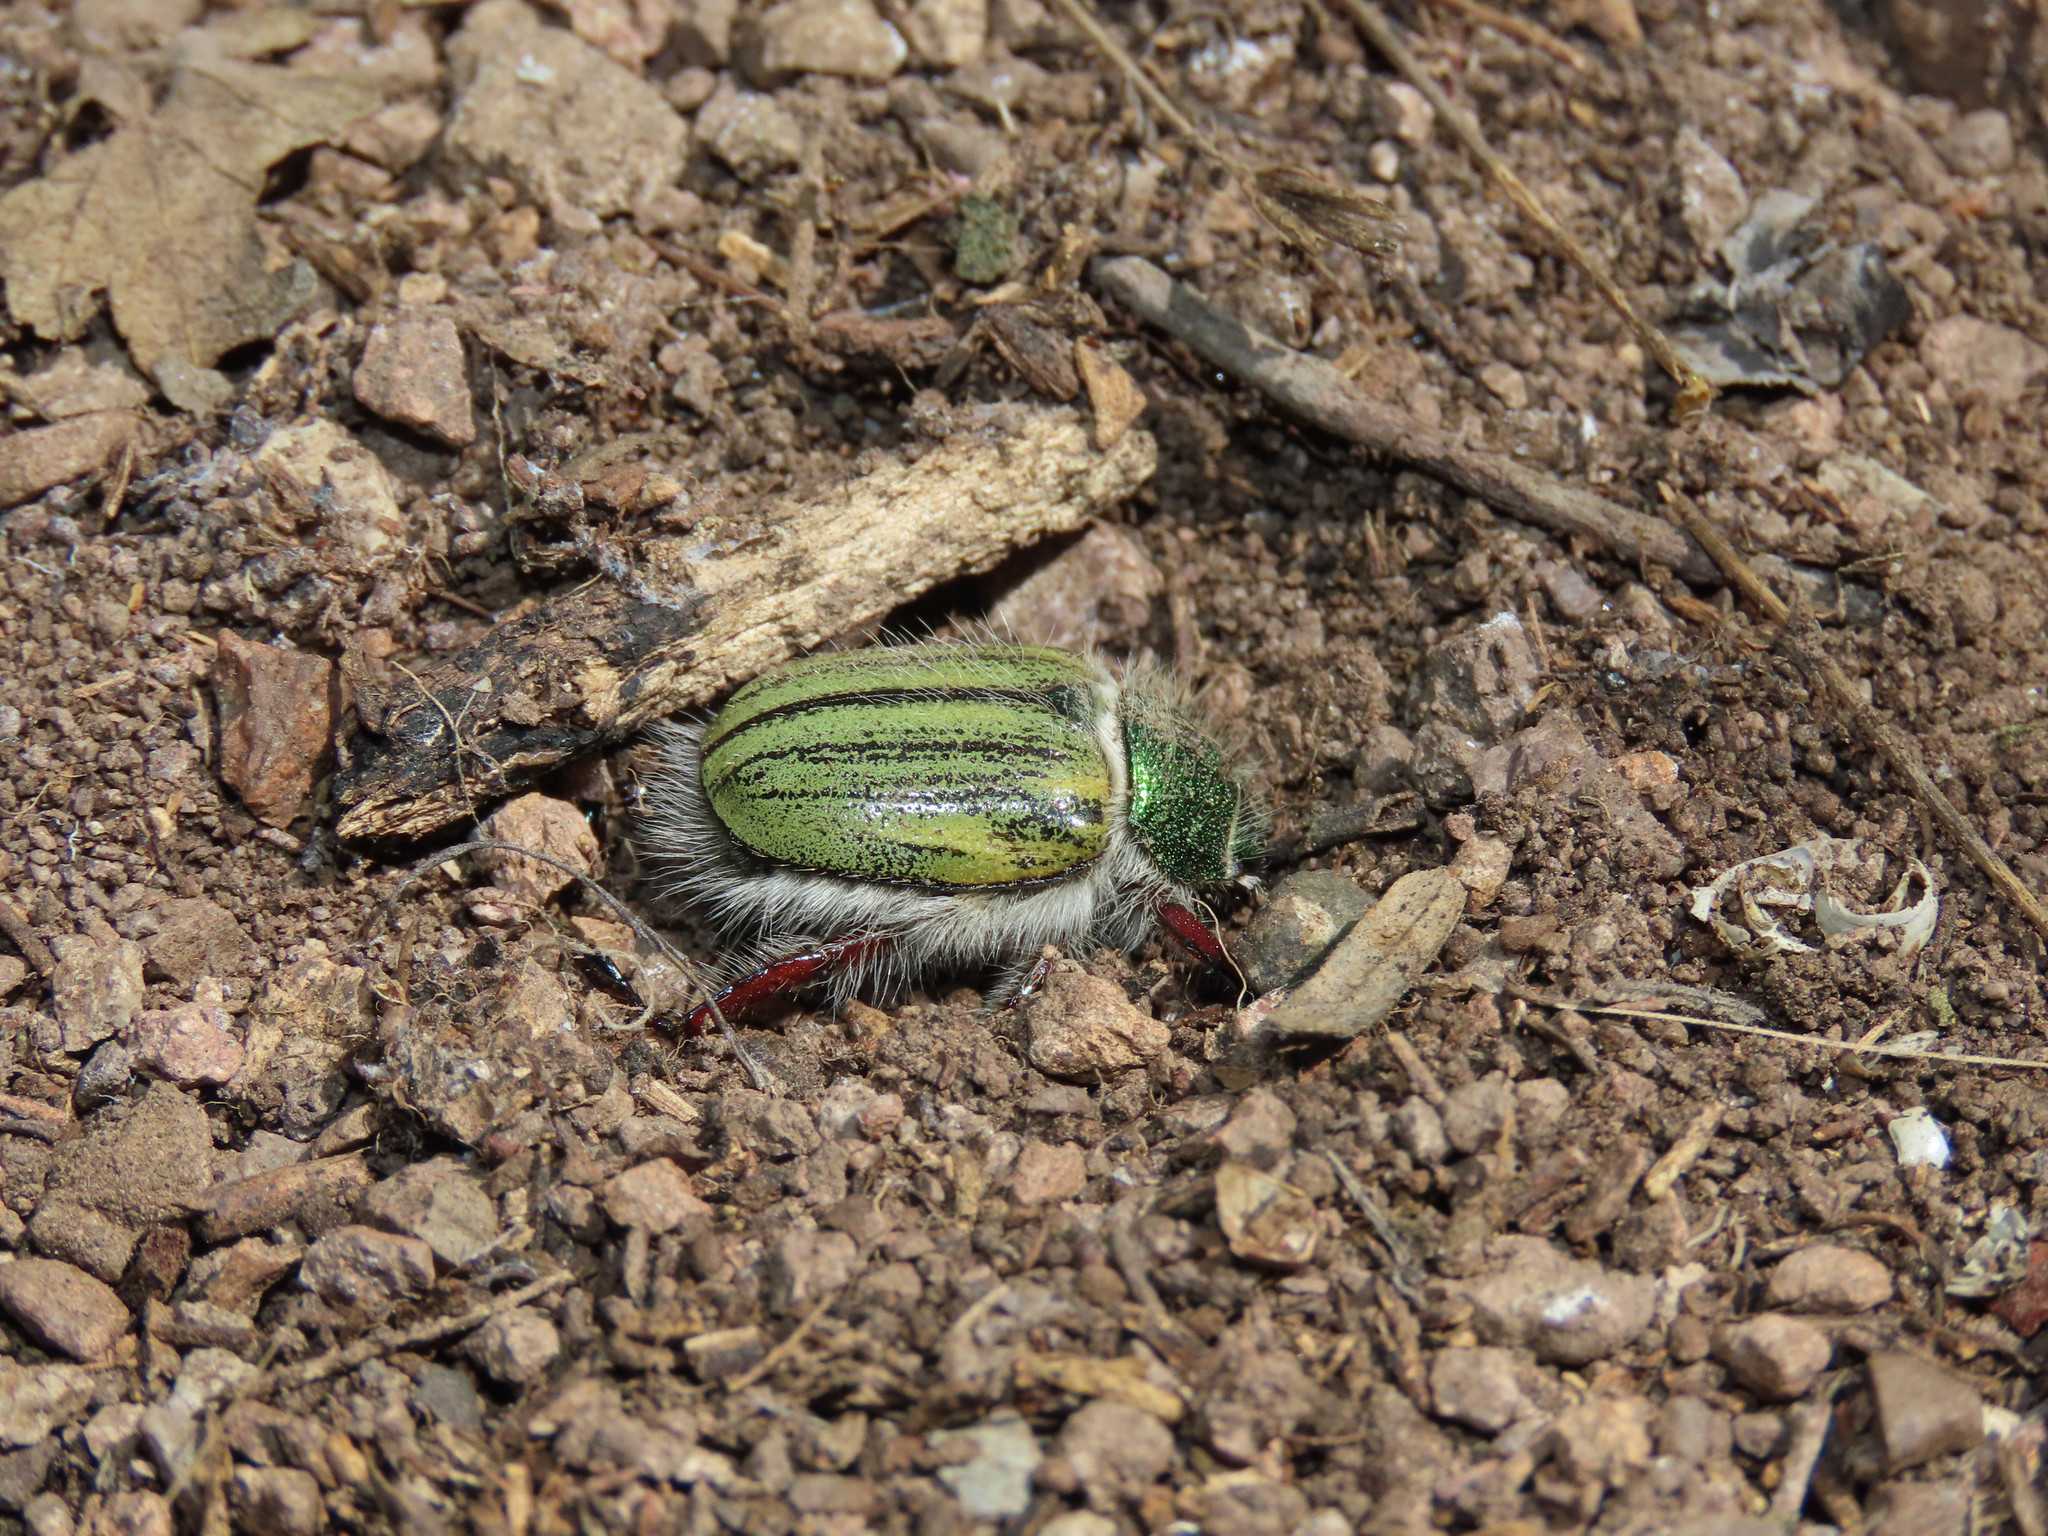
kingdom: Animalia
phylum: Arthropoda
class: Insecta
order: Coleoptera
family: Scarabaeidae
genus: Paracotalpa
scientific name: Paracotalpa puncticollis
